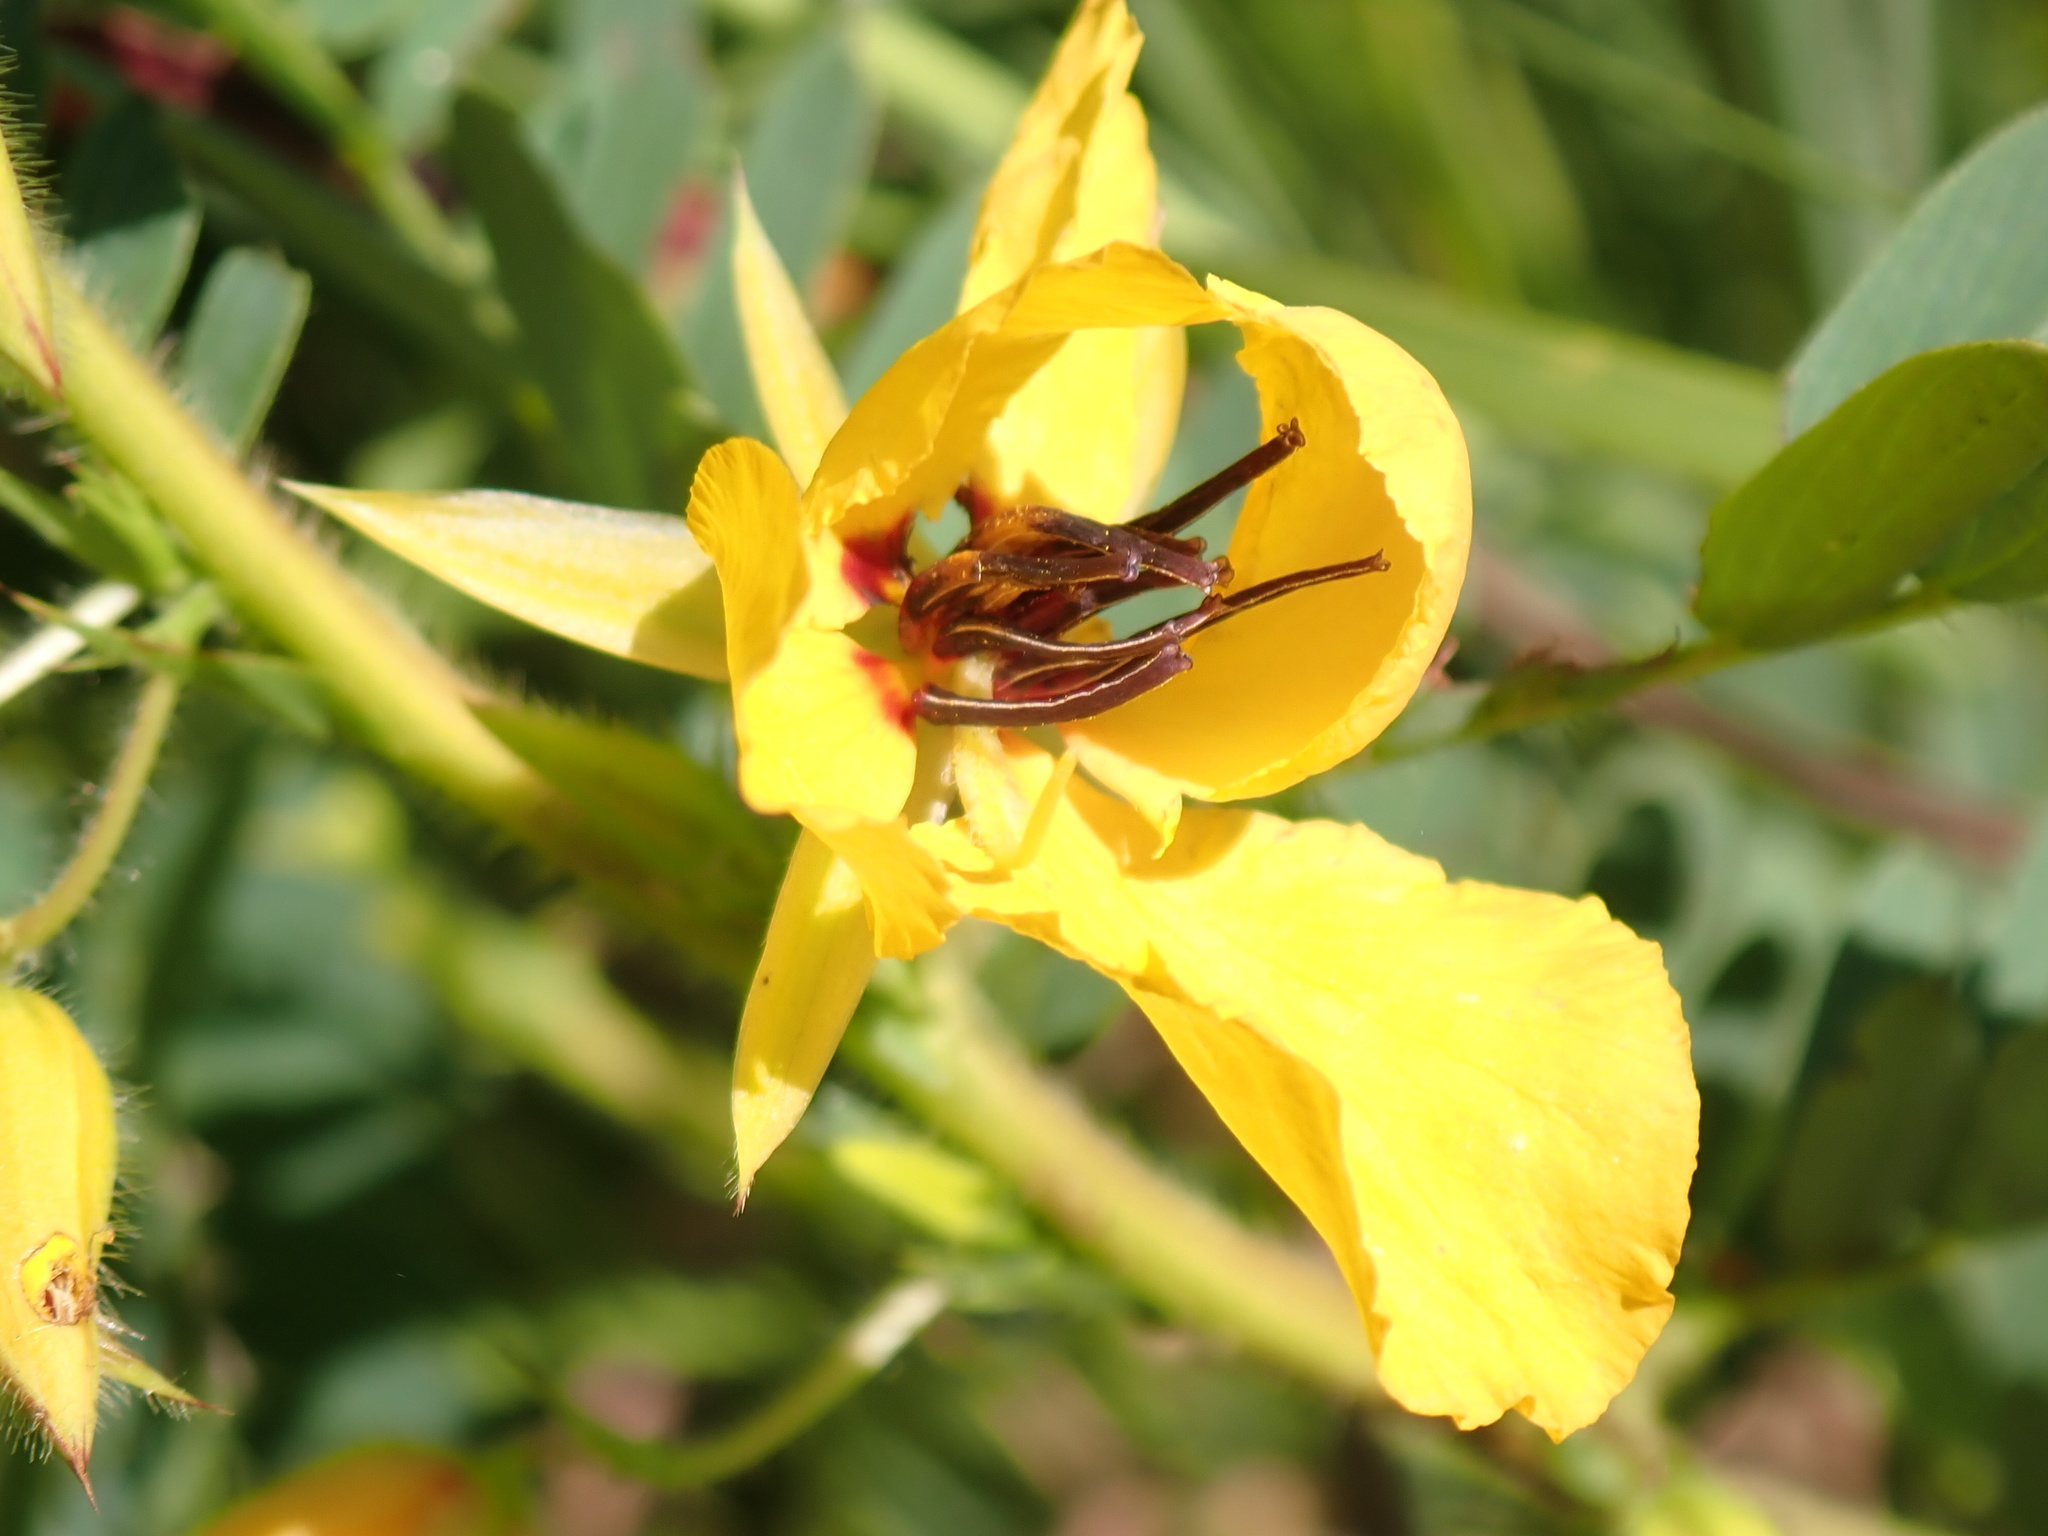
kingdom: Plantae
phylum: Tracheophyta
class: Magnoliopsida
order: Fabales
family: Fabaceae
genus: Chamaecrista
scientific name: Chamaecrista fasciculata
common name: Golden cassia
